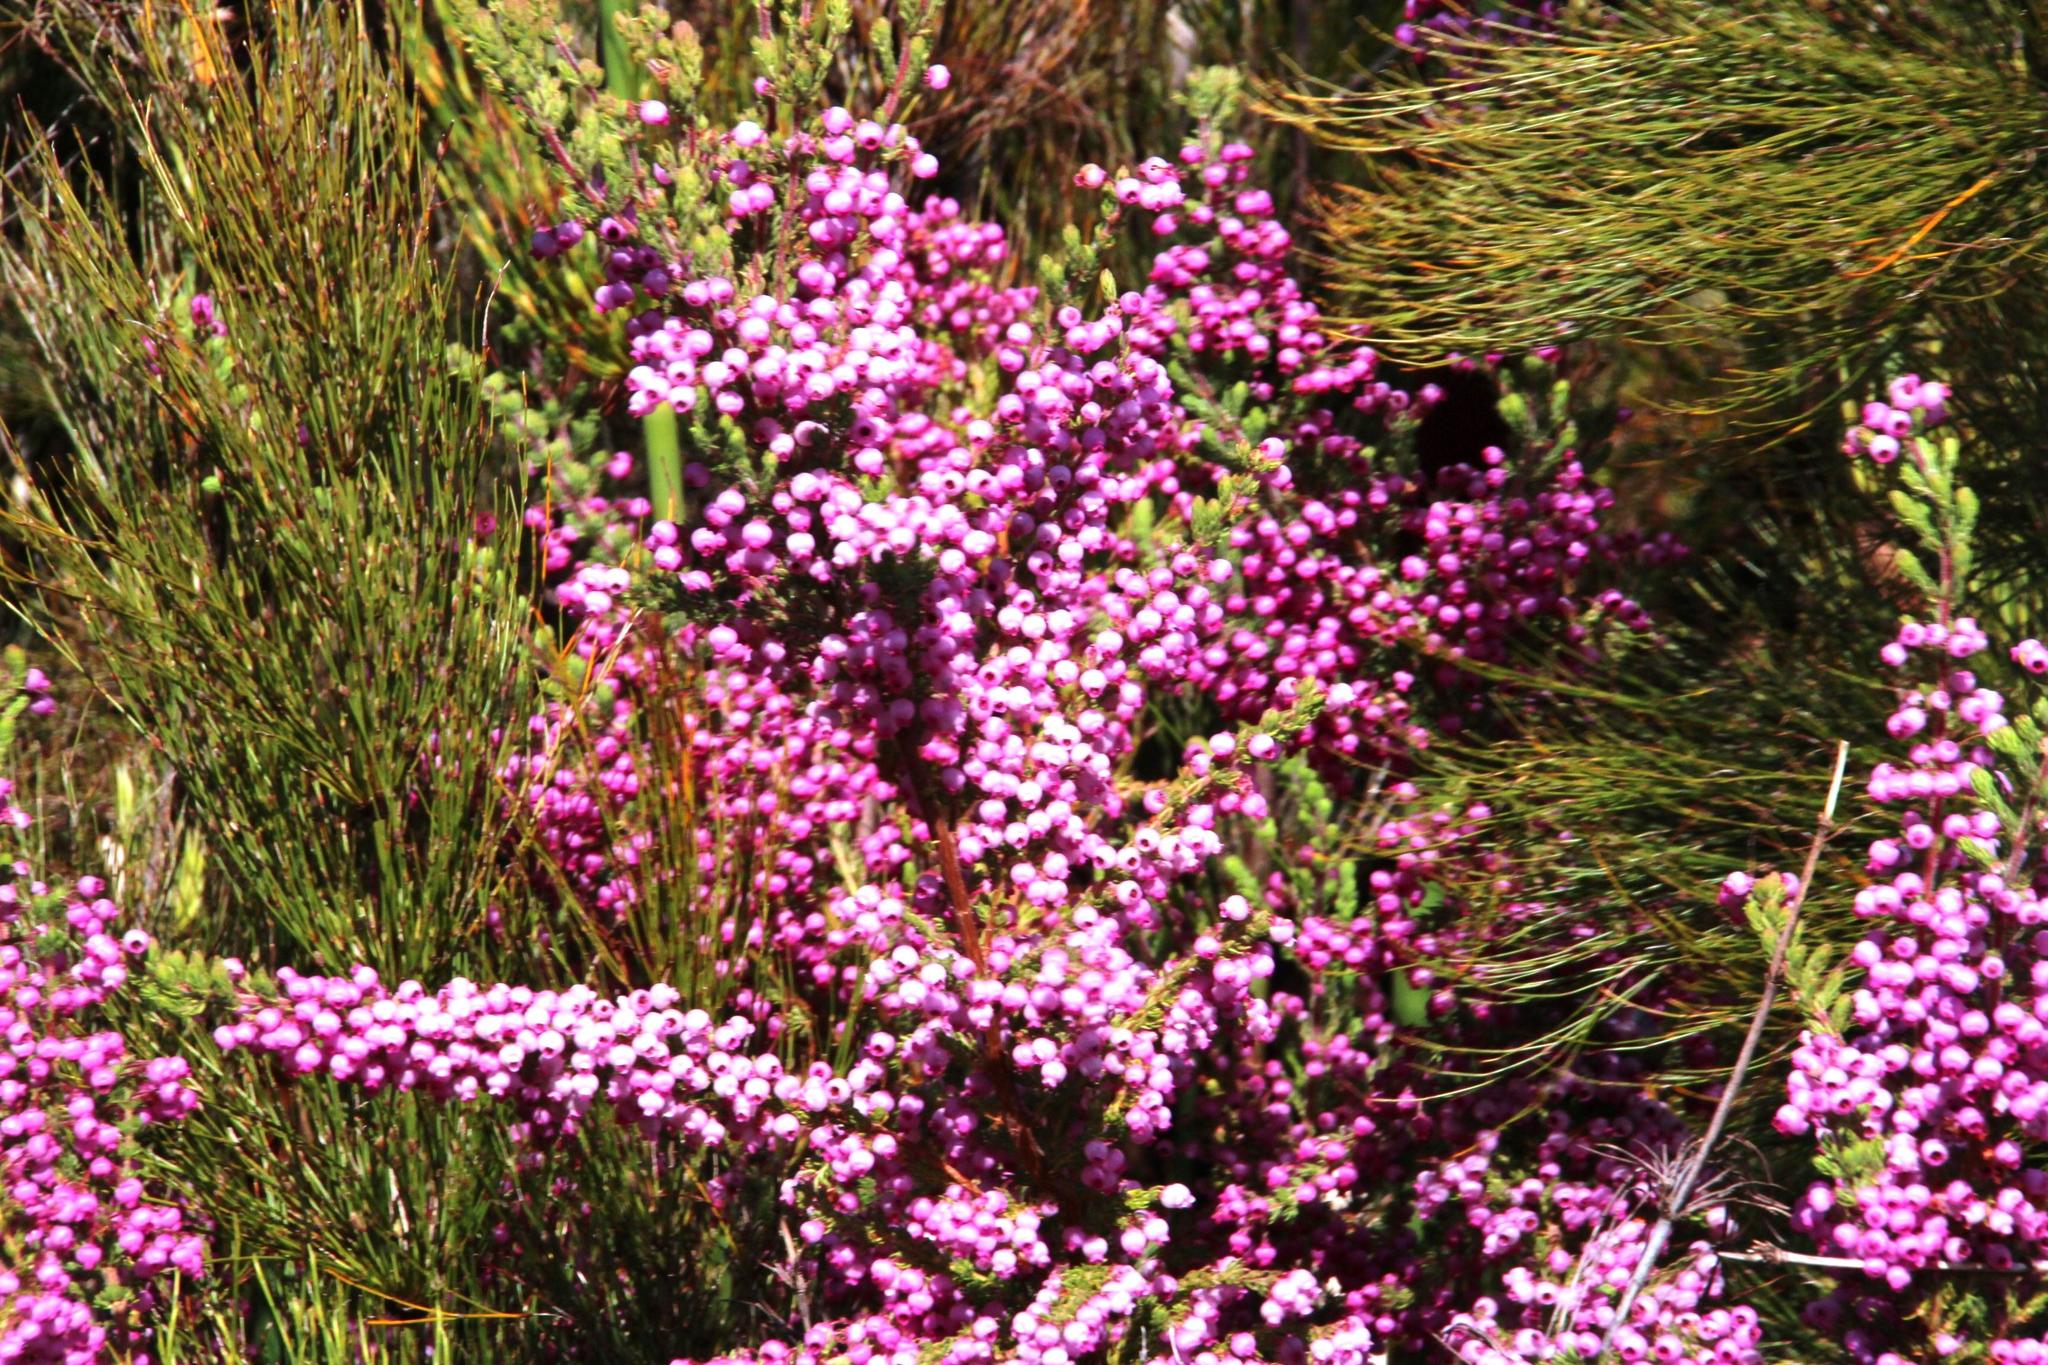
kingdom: Plantae
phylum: Tracheophyta
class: Magnoliopsida
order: Ericales
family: Ericaceae
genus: Erica
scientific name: Erica bergiana
